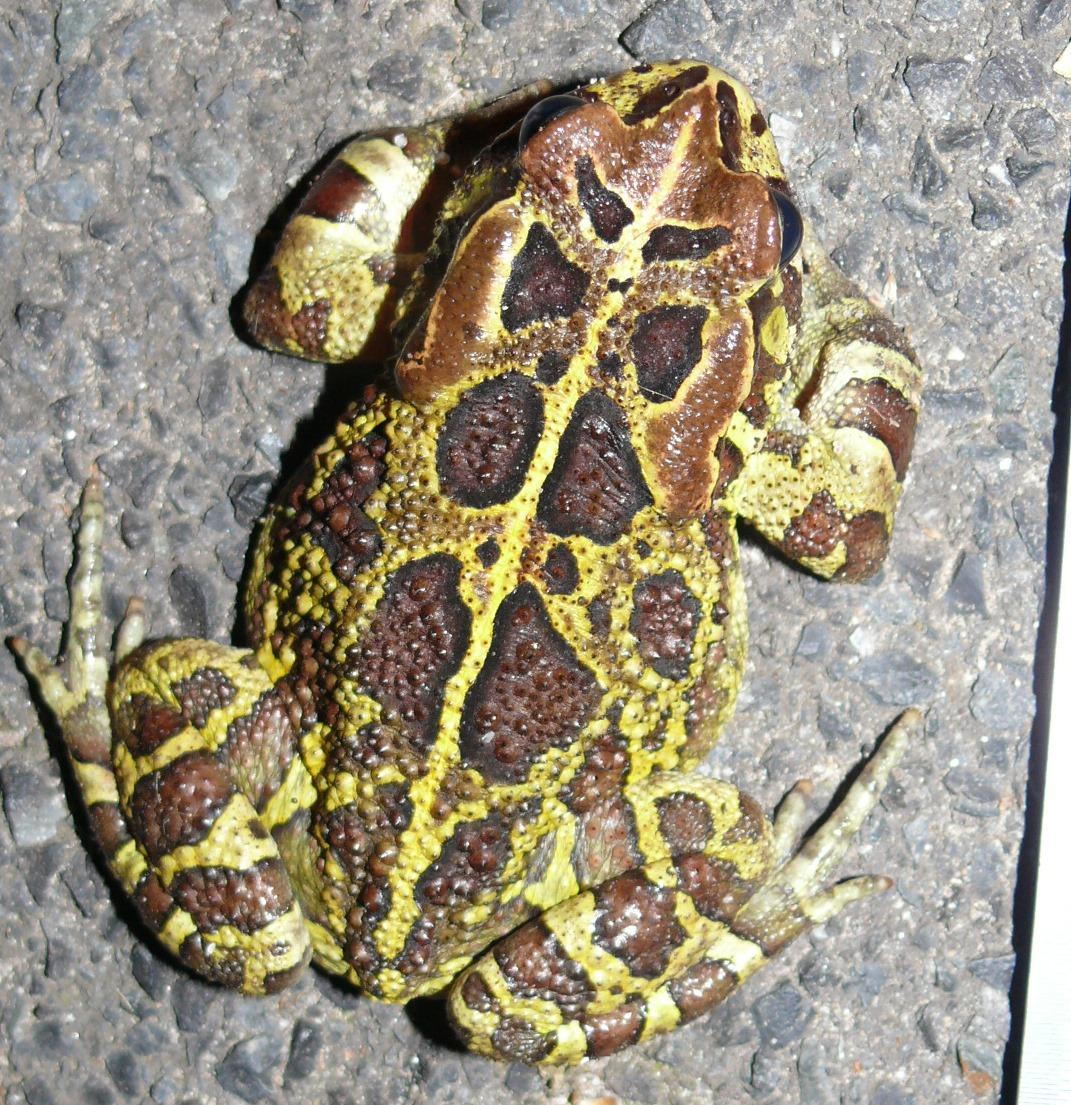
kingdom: Animalia
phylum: Chordata
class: Amphibia
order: Anura
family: Bufonidae
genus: Sclerophrys
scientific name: Sclerophrys pantherina
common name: Panther toad
